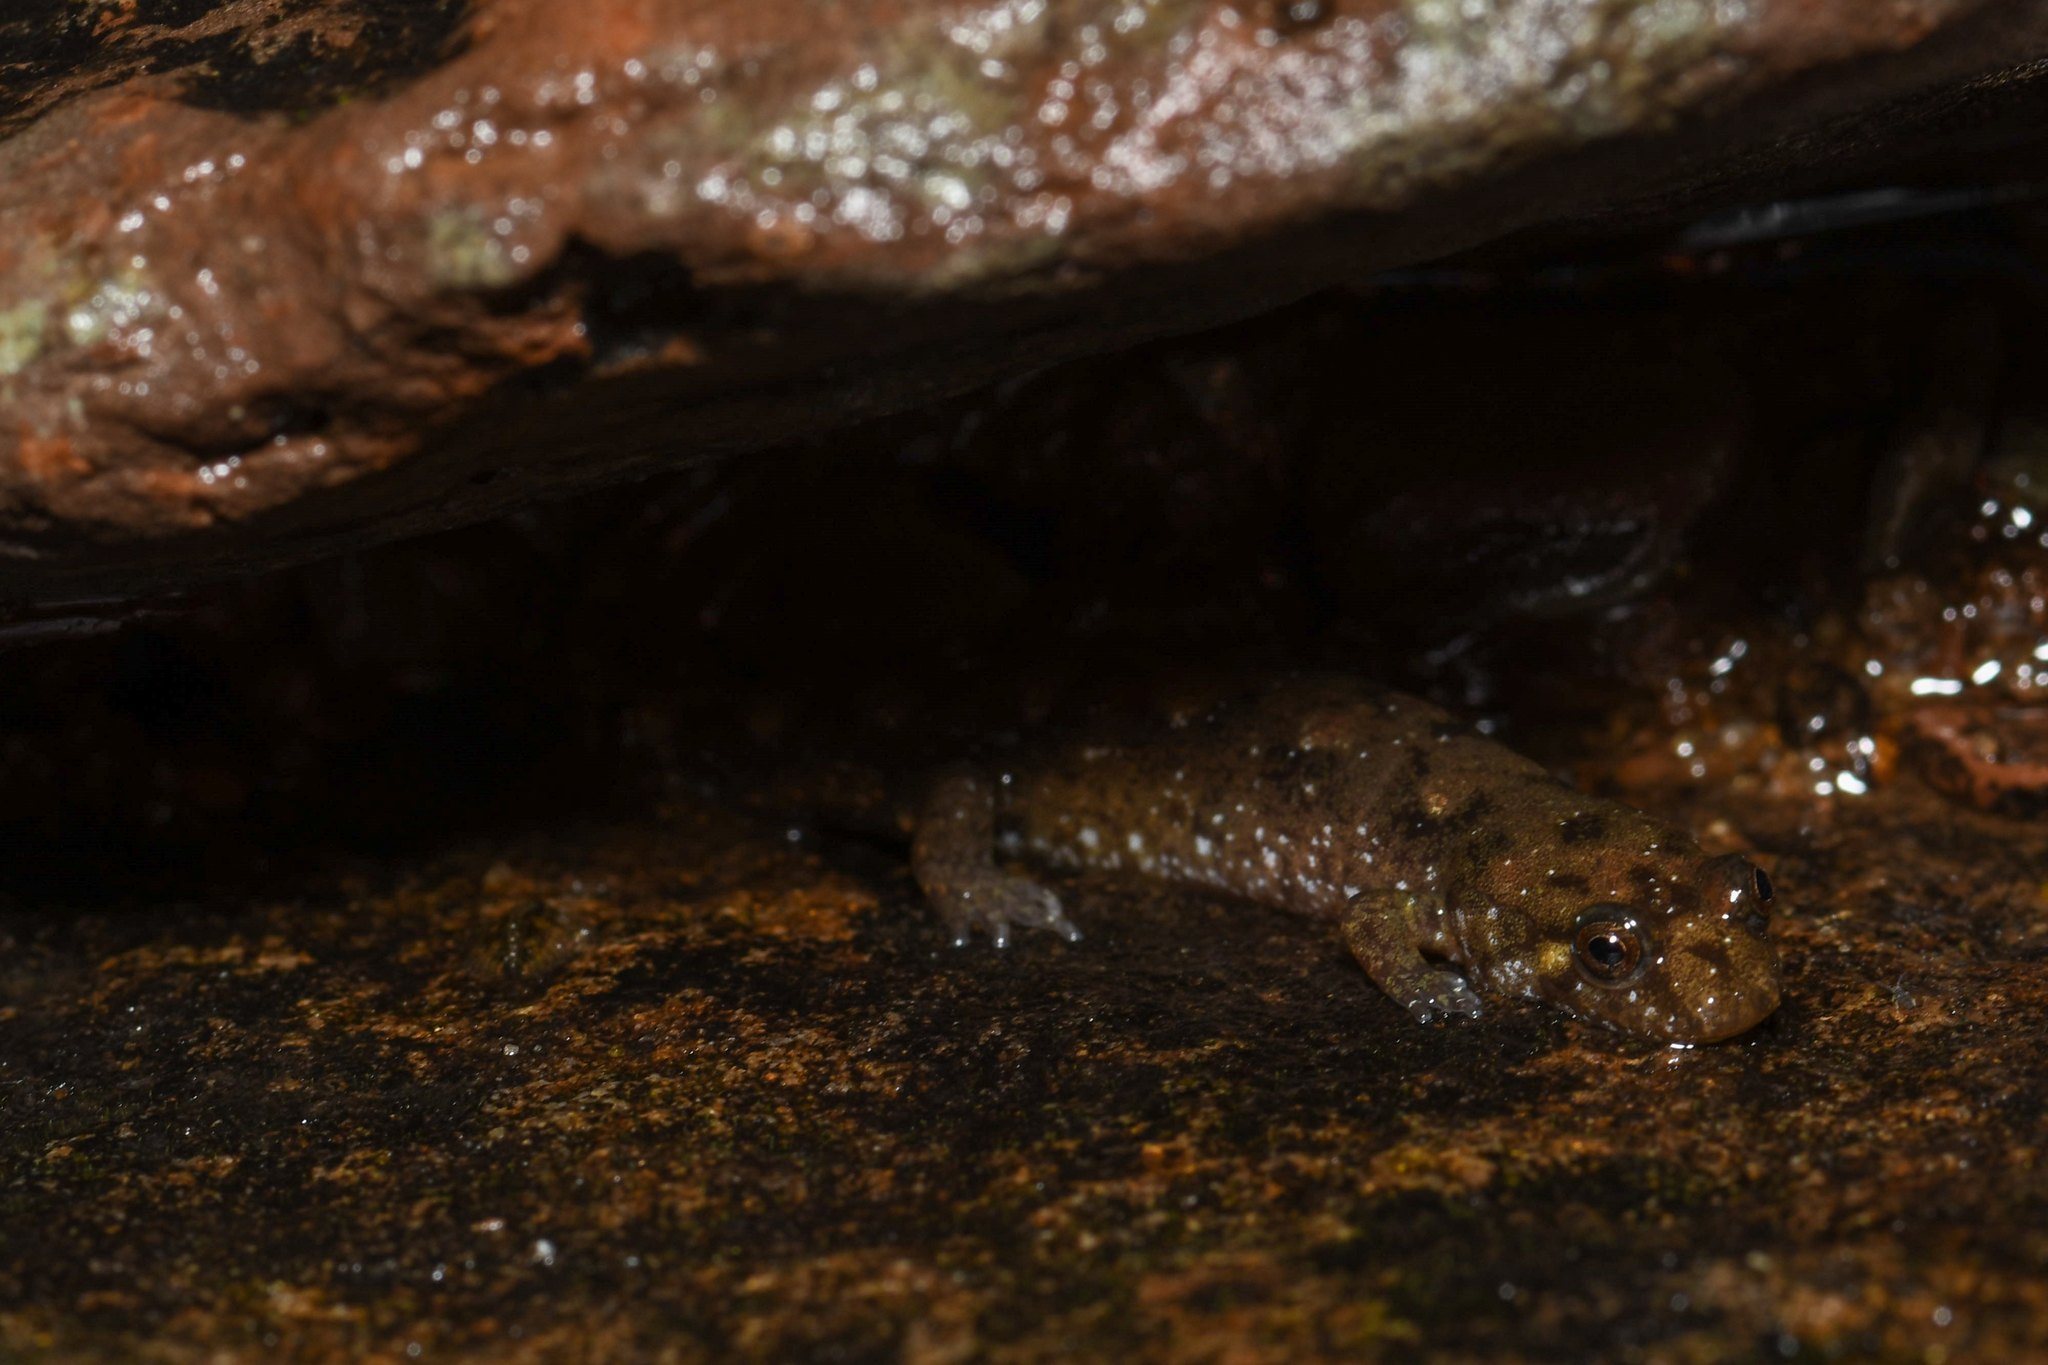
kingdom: Animalia
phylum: Chordata
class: Amphibia
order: Caudata
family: Plethodontidae
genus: Desmognathus
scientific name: Desmognathus monticola
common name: Seal salamander
